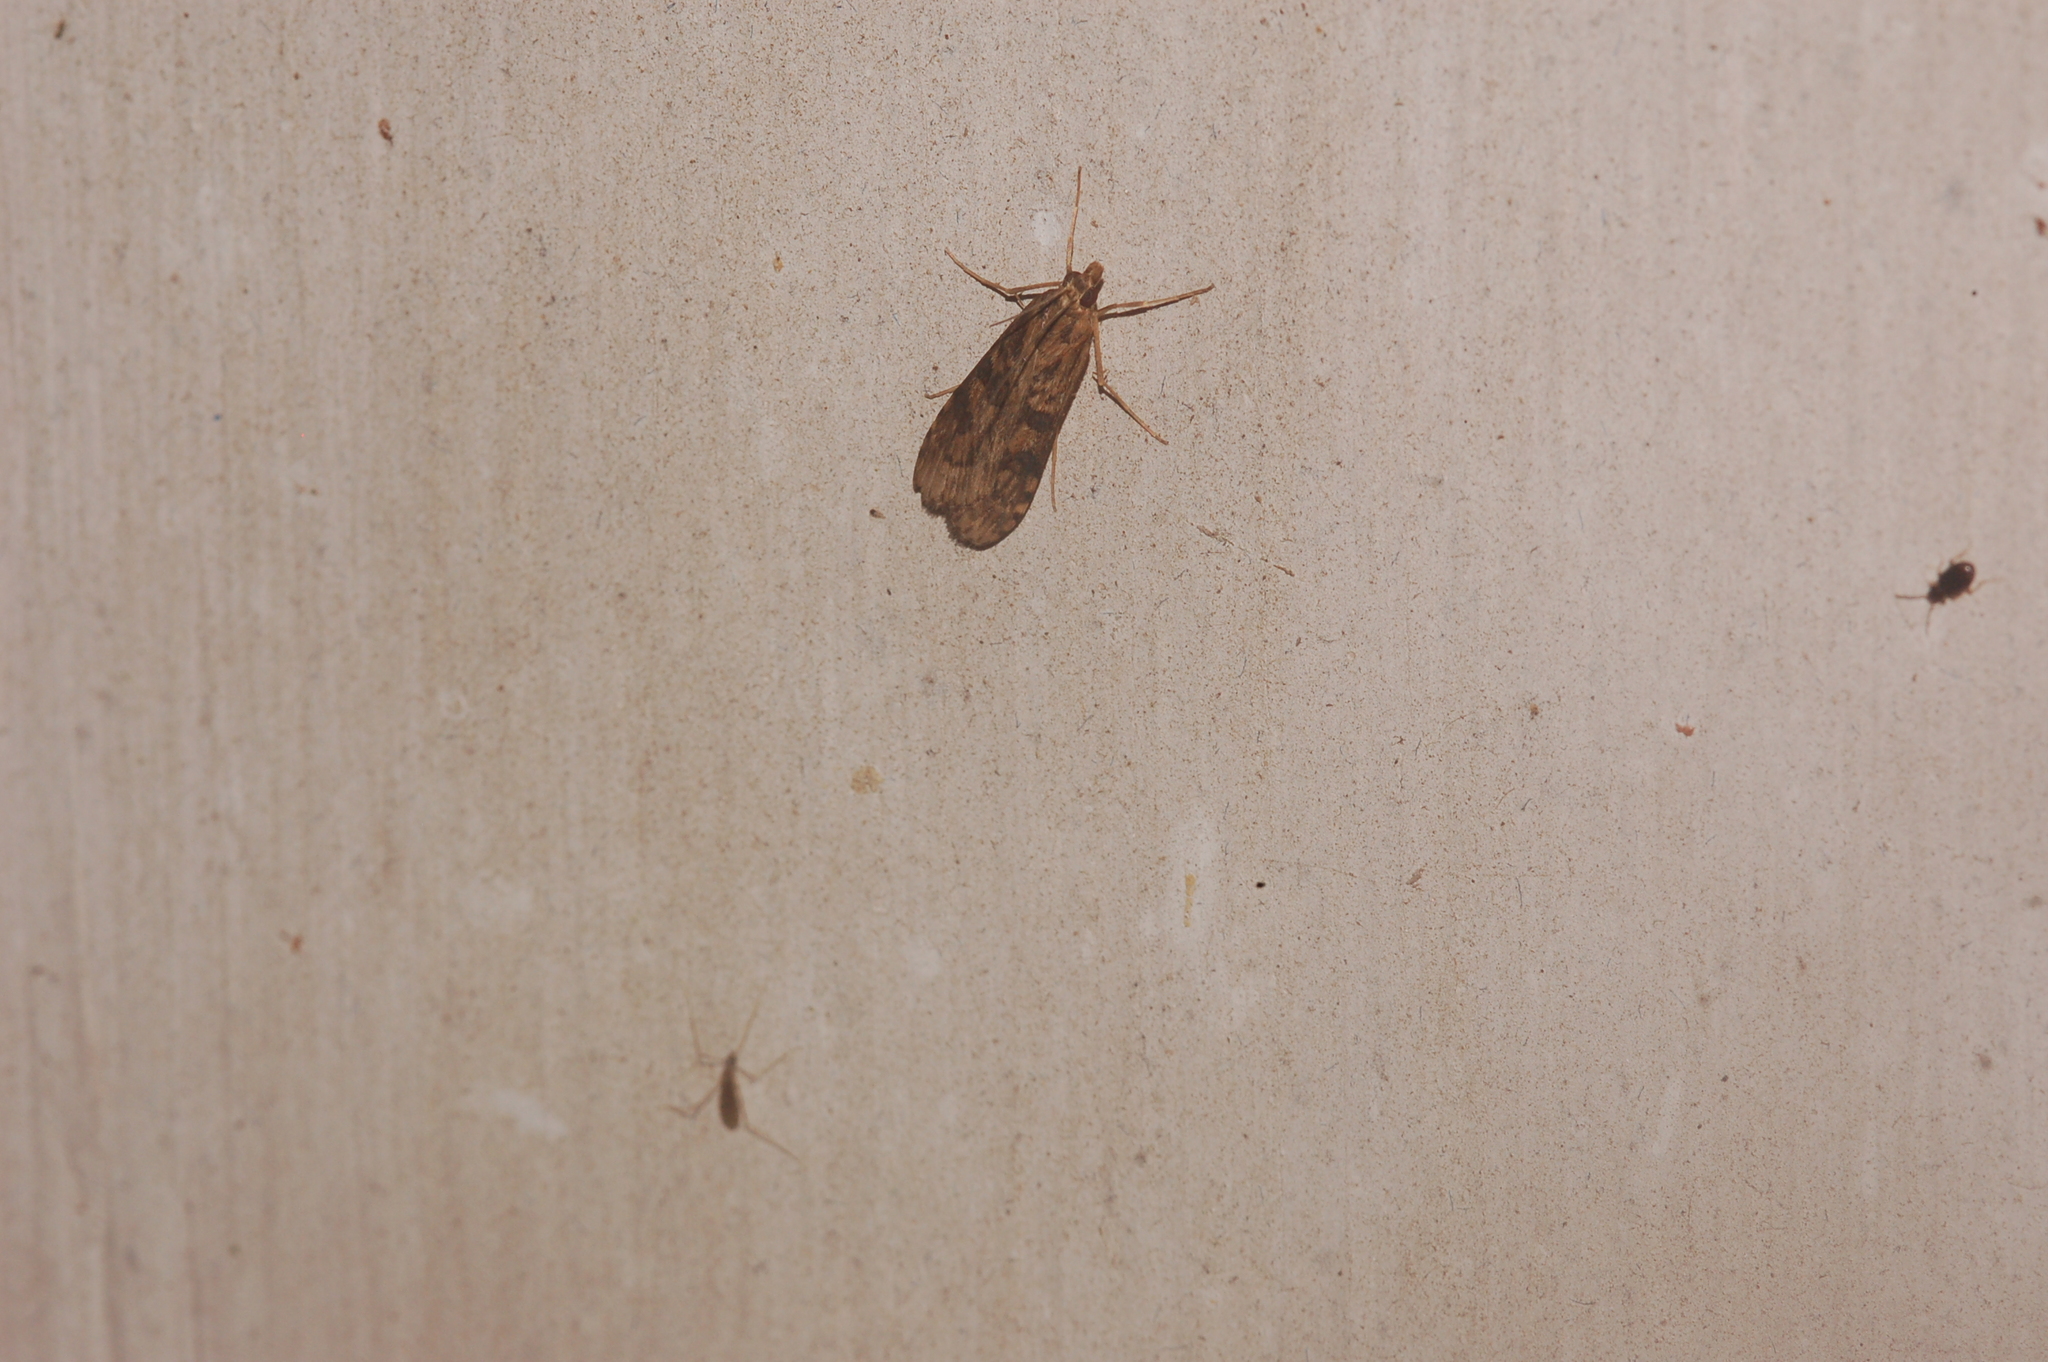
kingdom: Animalia
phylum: Arthropoda
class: Insecta
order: Lepidoptera
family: Crambidae
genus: Nomophila
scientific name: Nomophila nearctica
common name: American rush veneer
